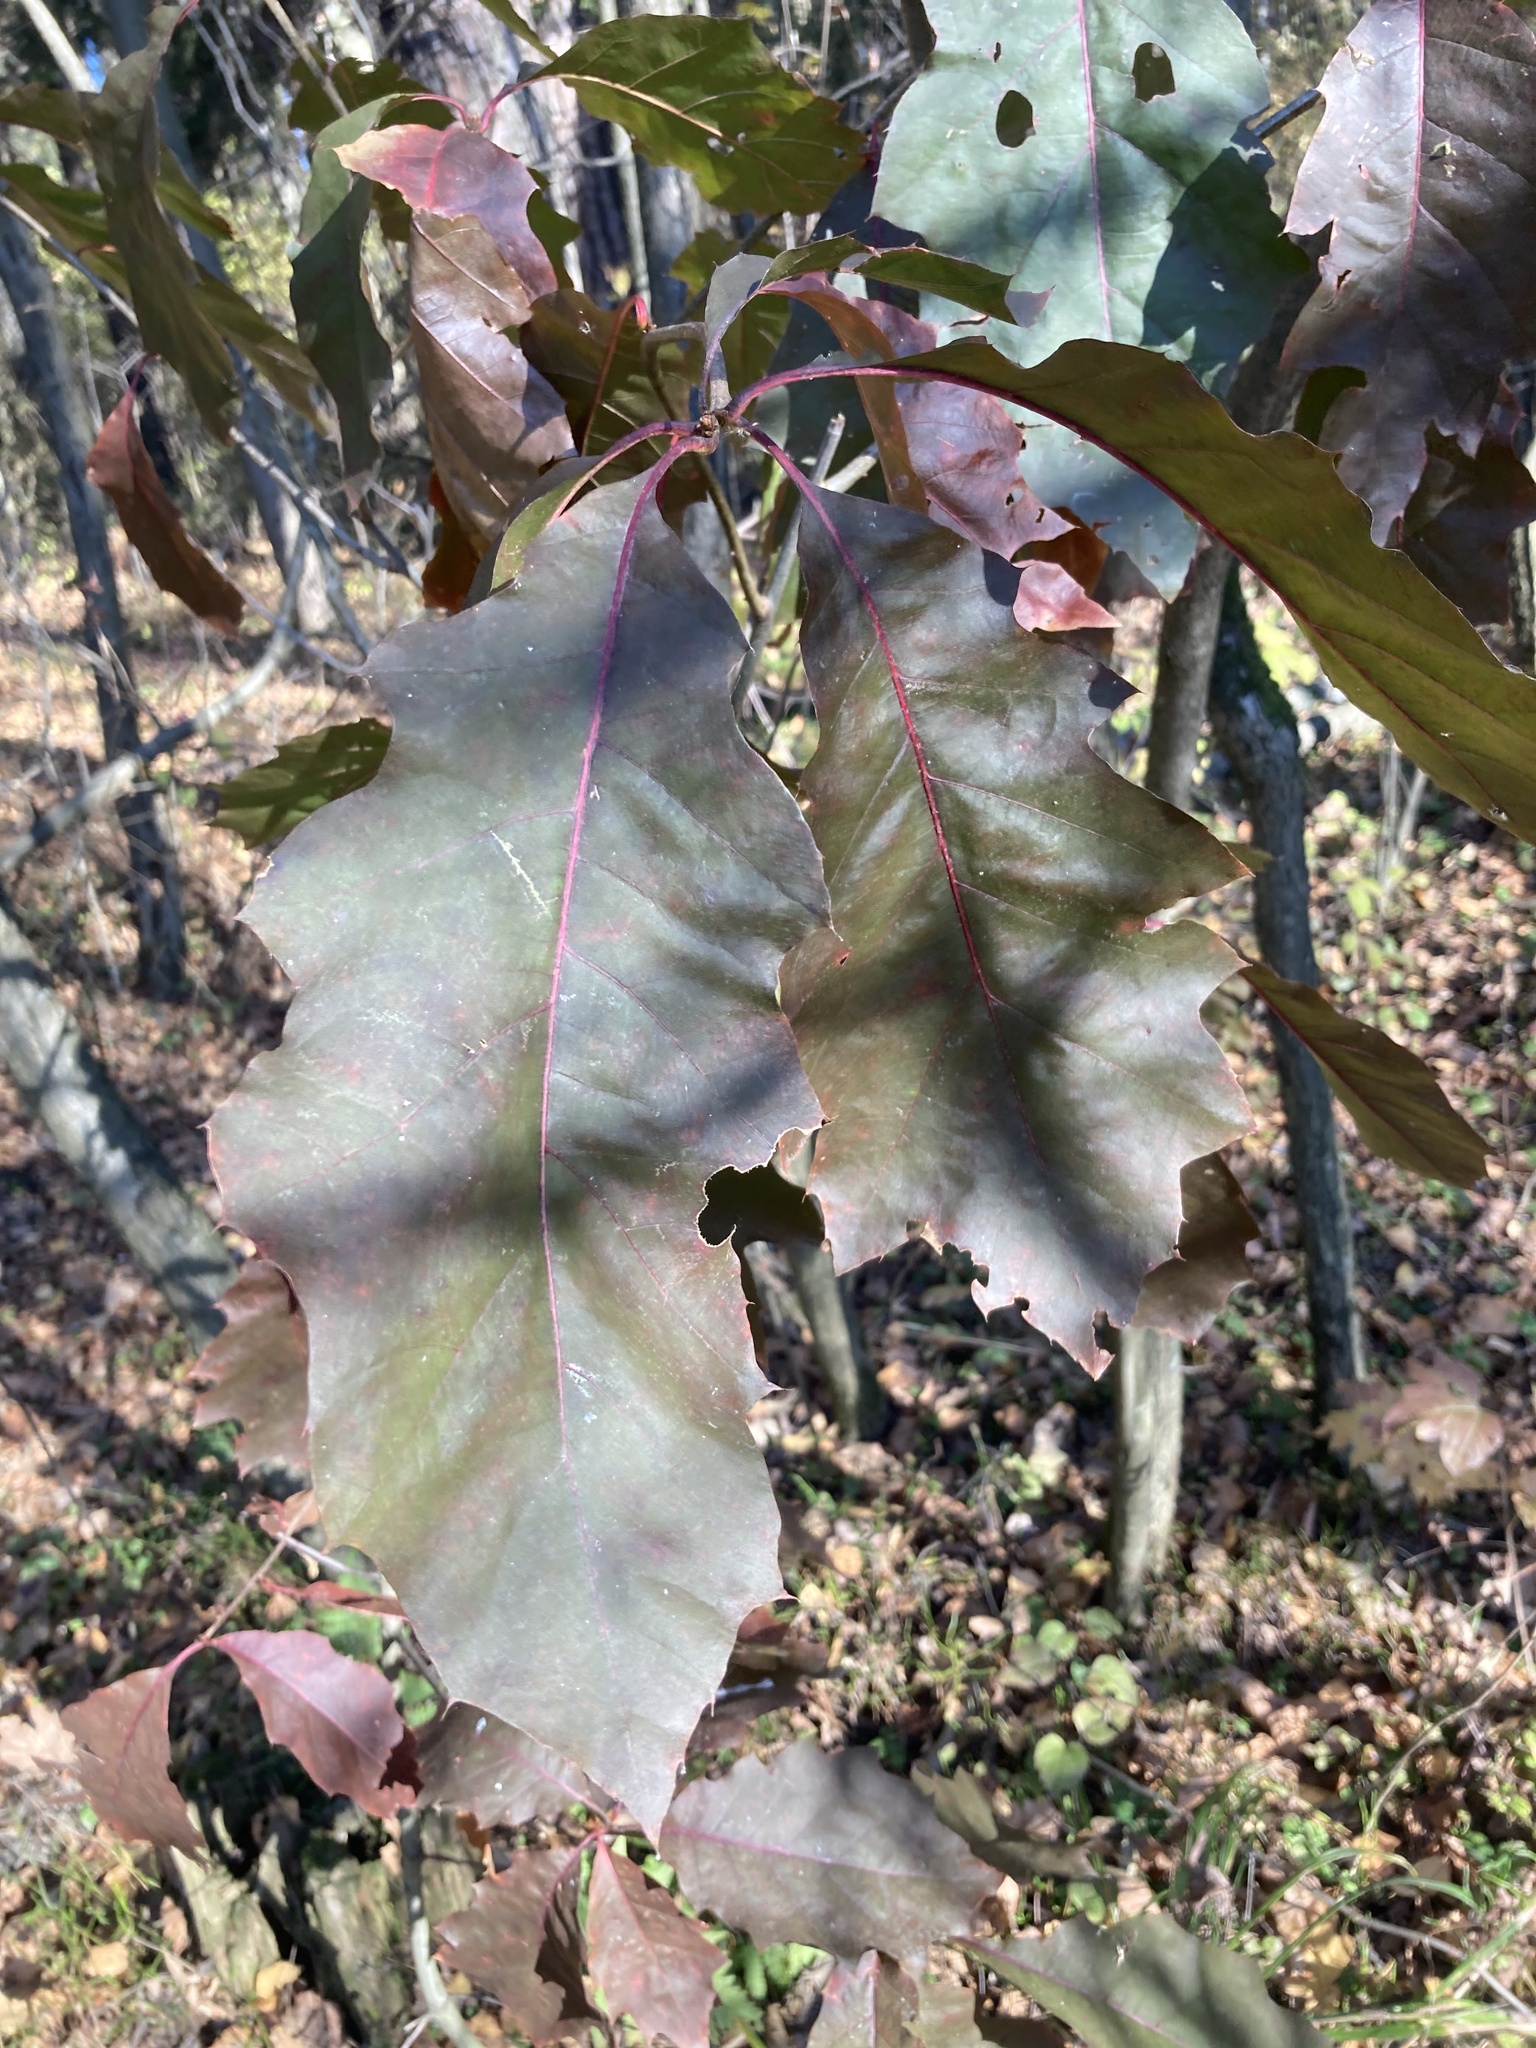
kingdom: Plantae
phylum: Tracheophyta
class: Magnoliopsida
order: Fagales
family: Fagaceae
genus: Quercus
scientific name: Quercus rubra
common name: Red oak
